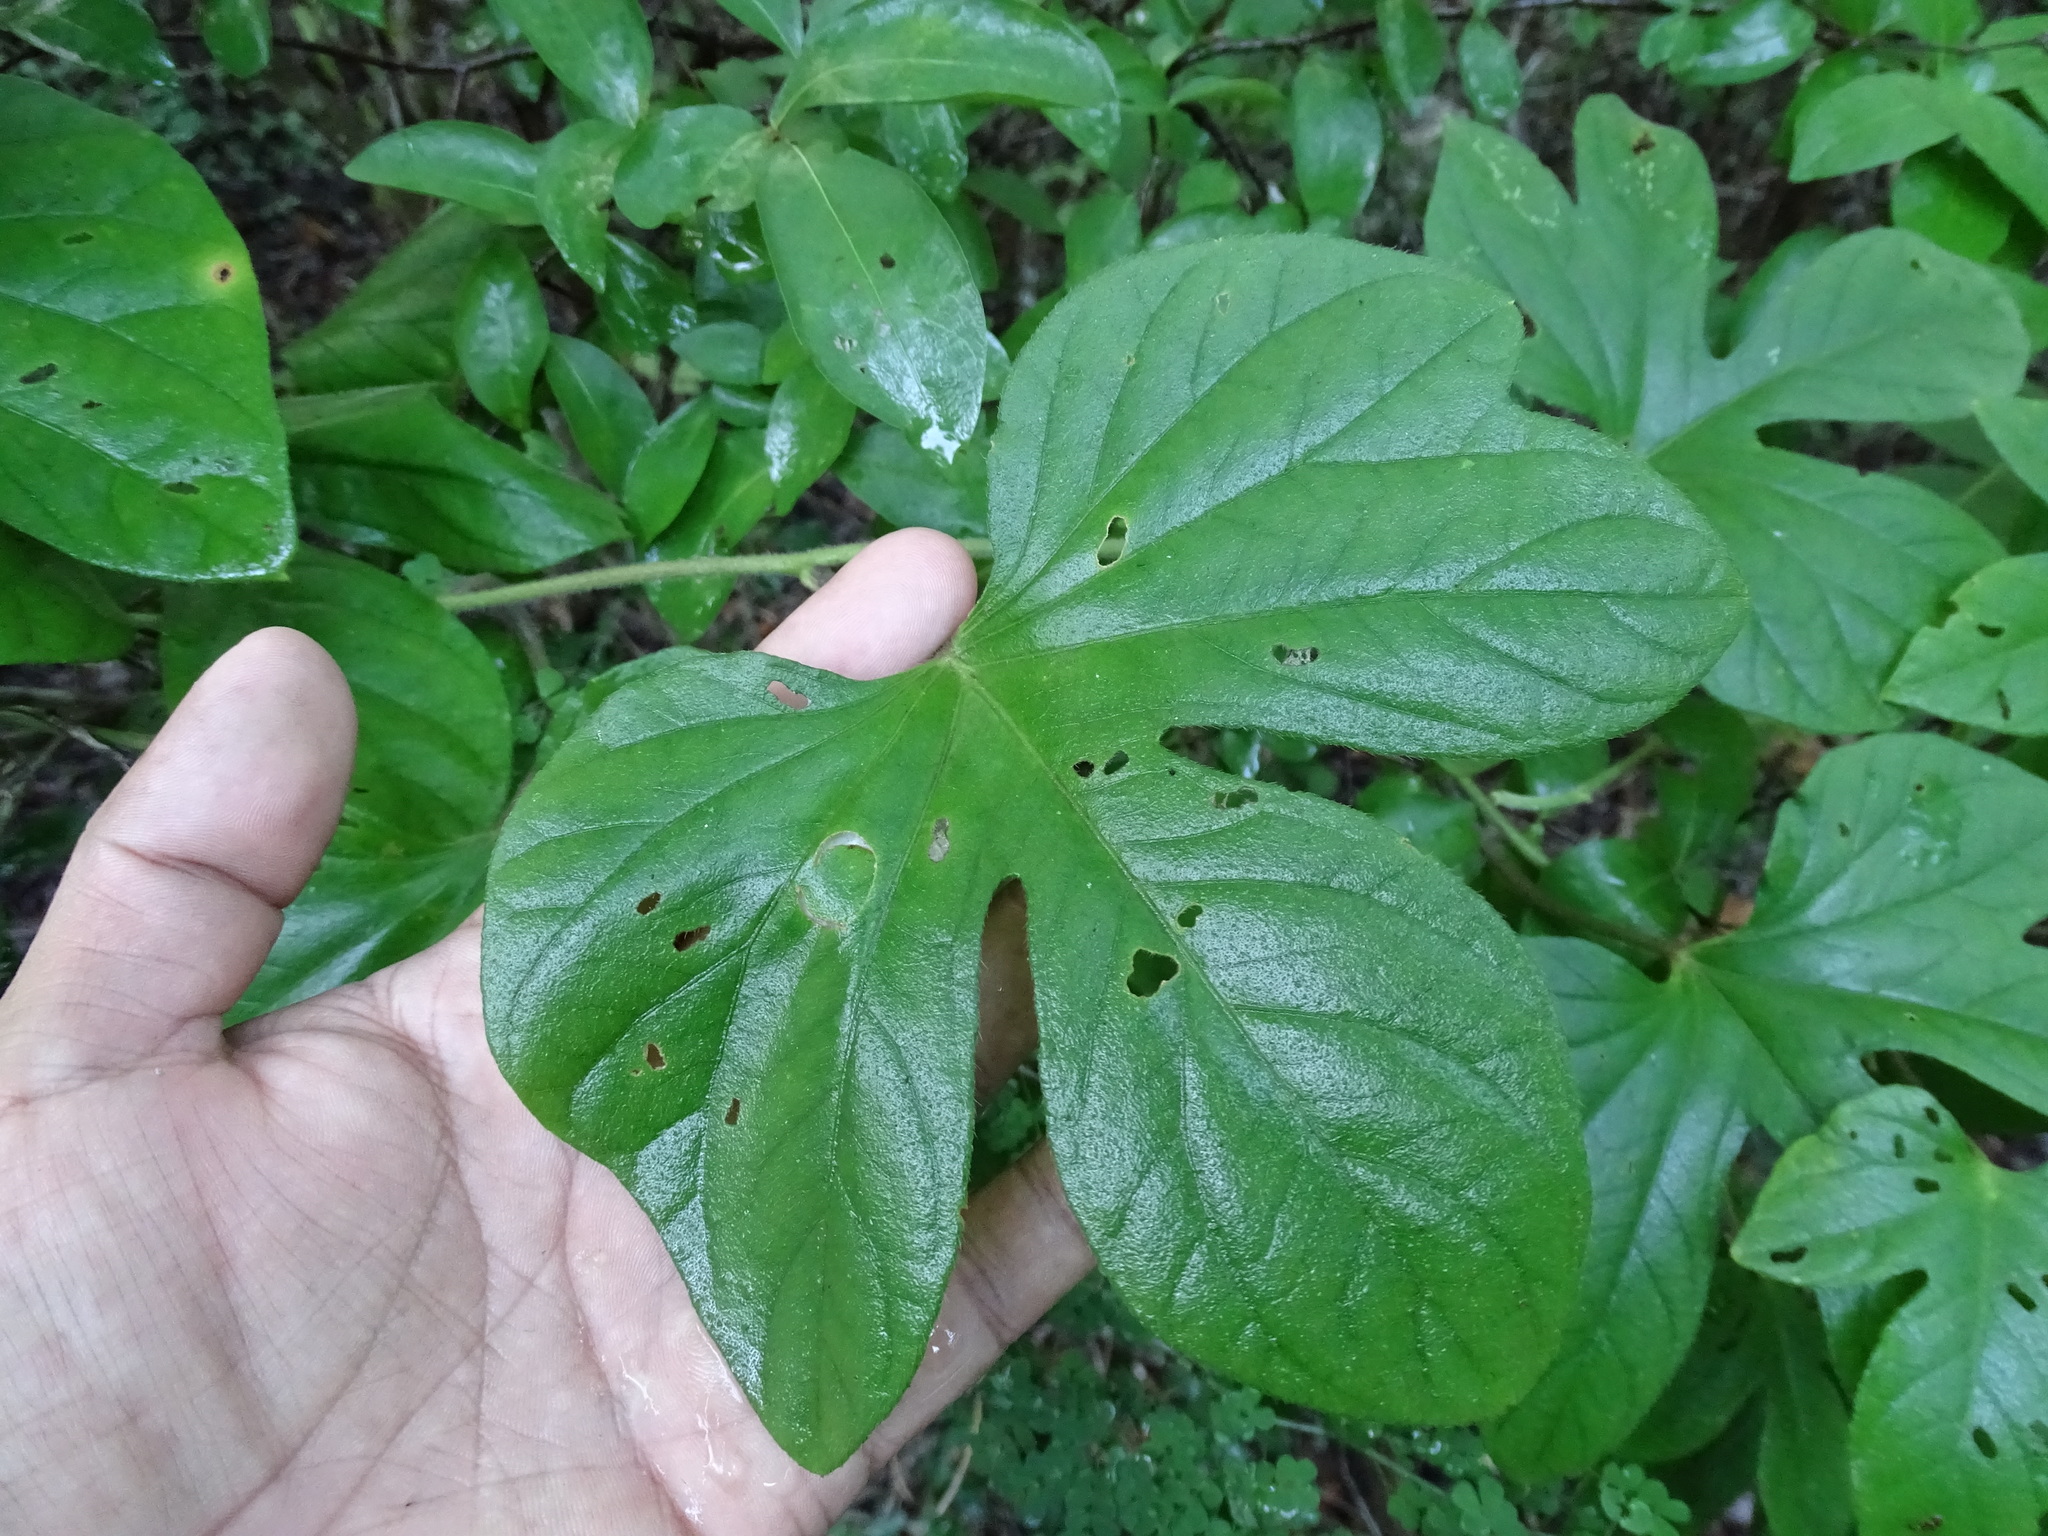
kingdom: Plantae
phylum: Tracheophyta
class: Magnoliopsida
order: Solanales
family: Convolvulaceae
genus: Ipomoea
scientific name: Ipomoea peteri
